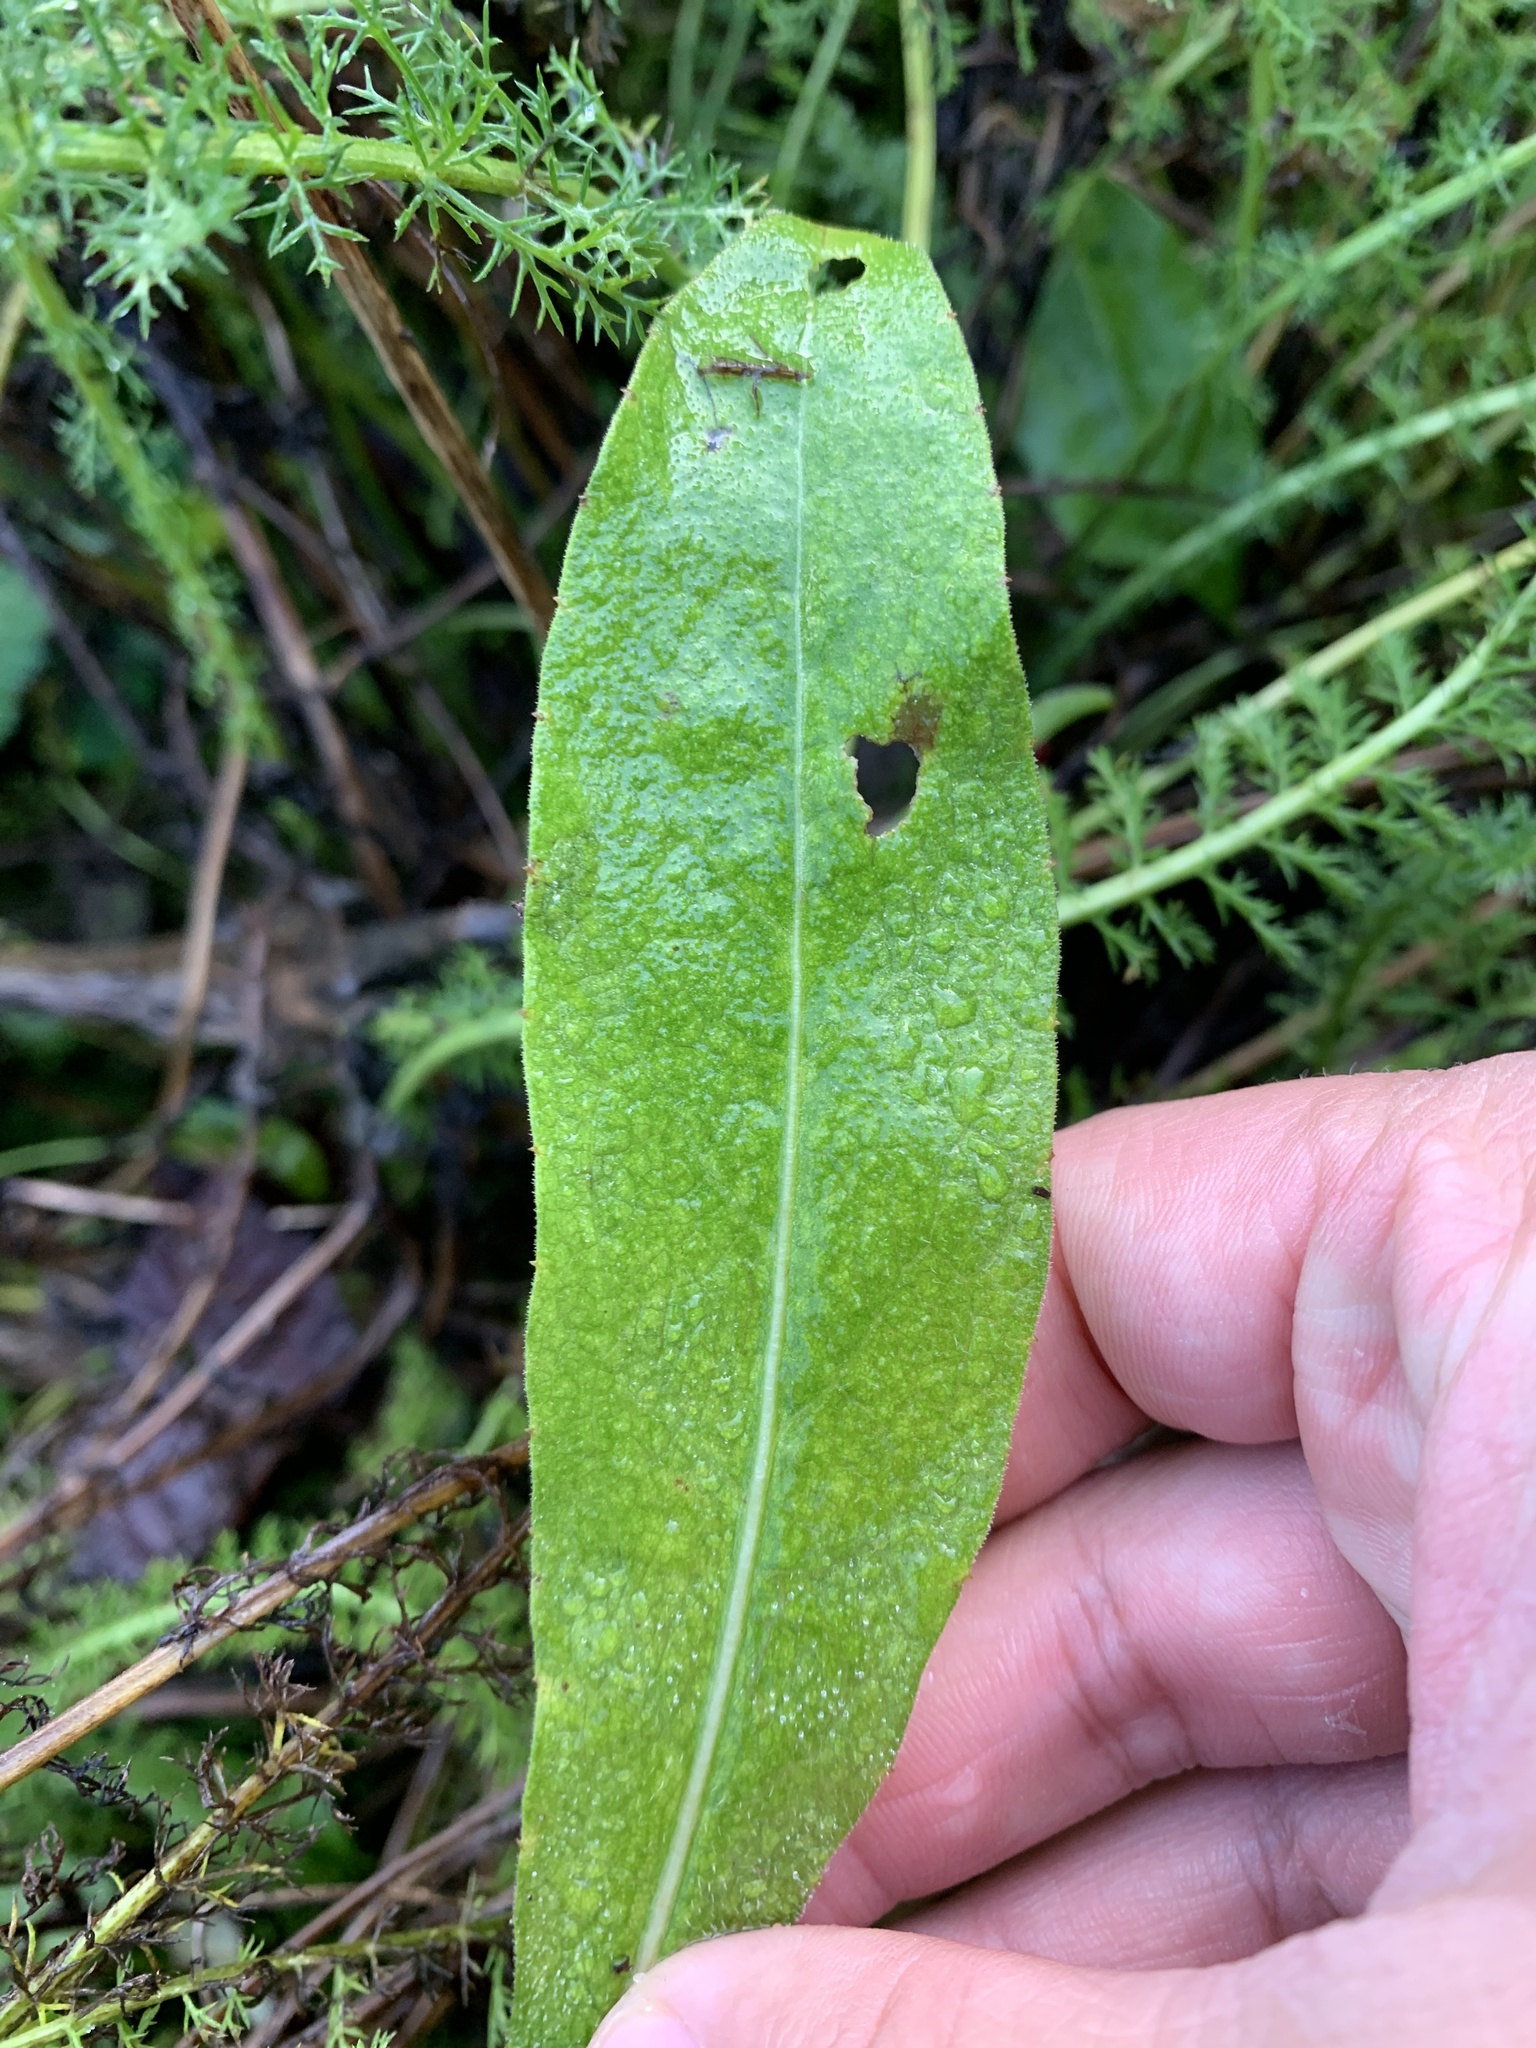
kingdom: Plantae
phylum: Tracheophyta
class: Magnoliopsida
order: Asterales
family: Asteraceae
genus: Centaurea
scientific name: Centaurea nigra
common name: Lesser knapweed
